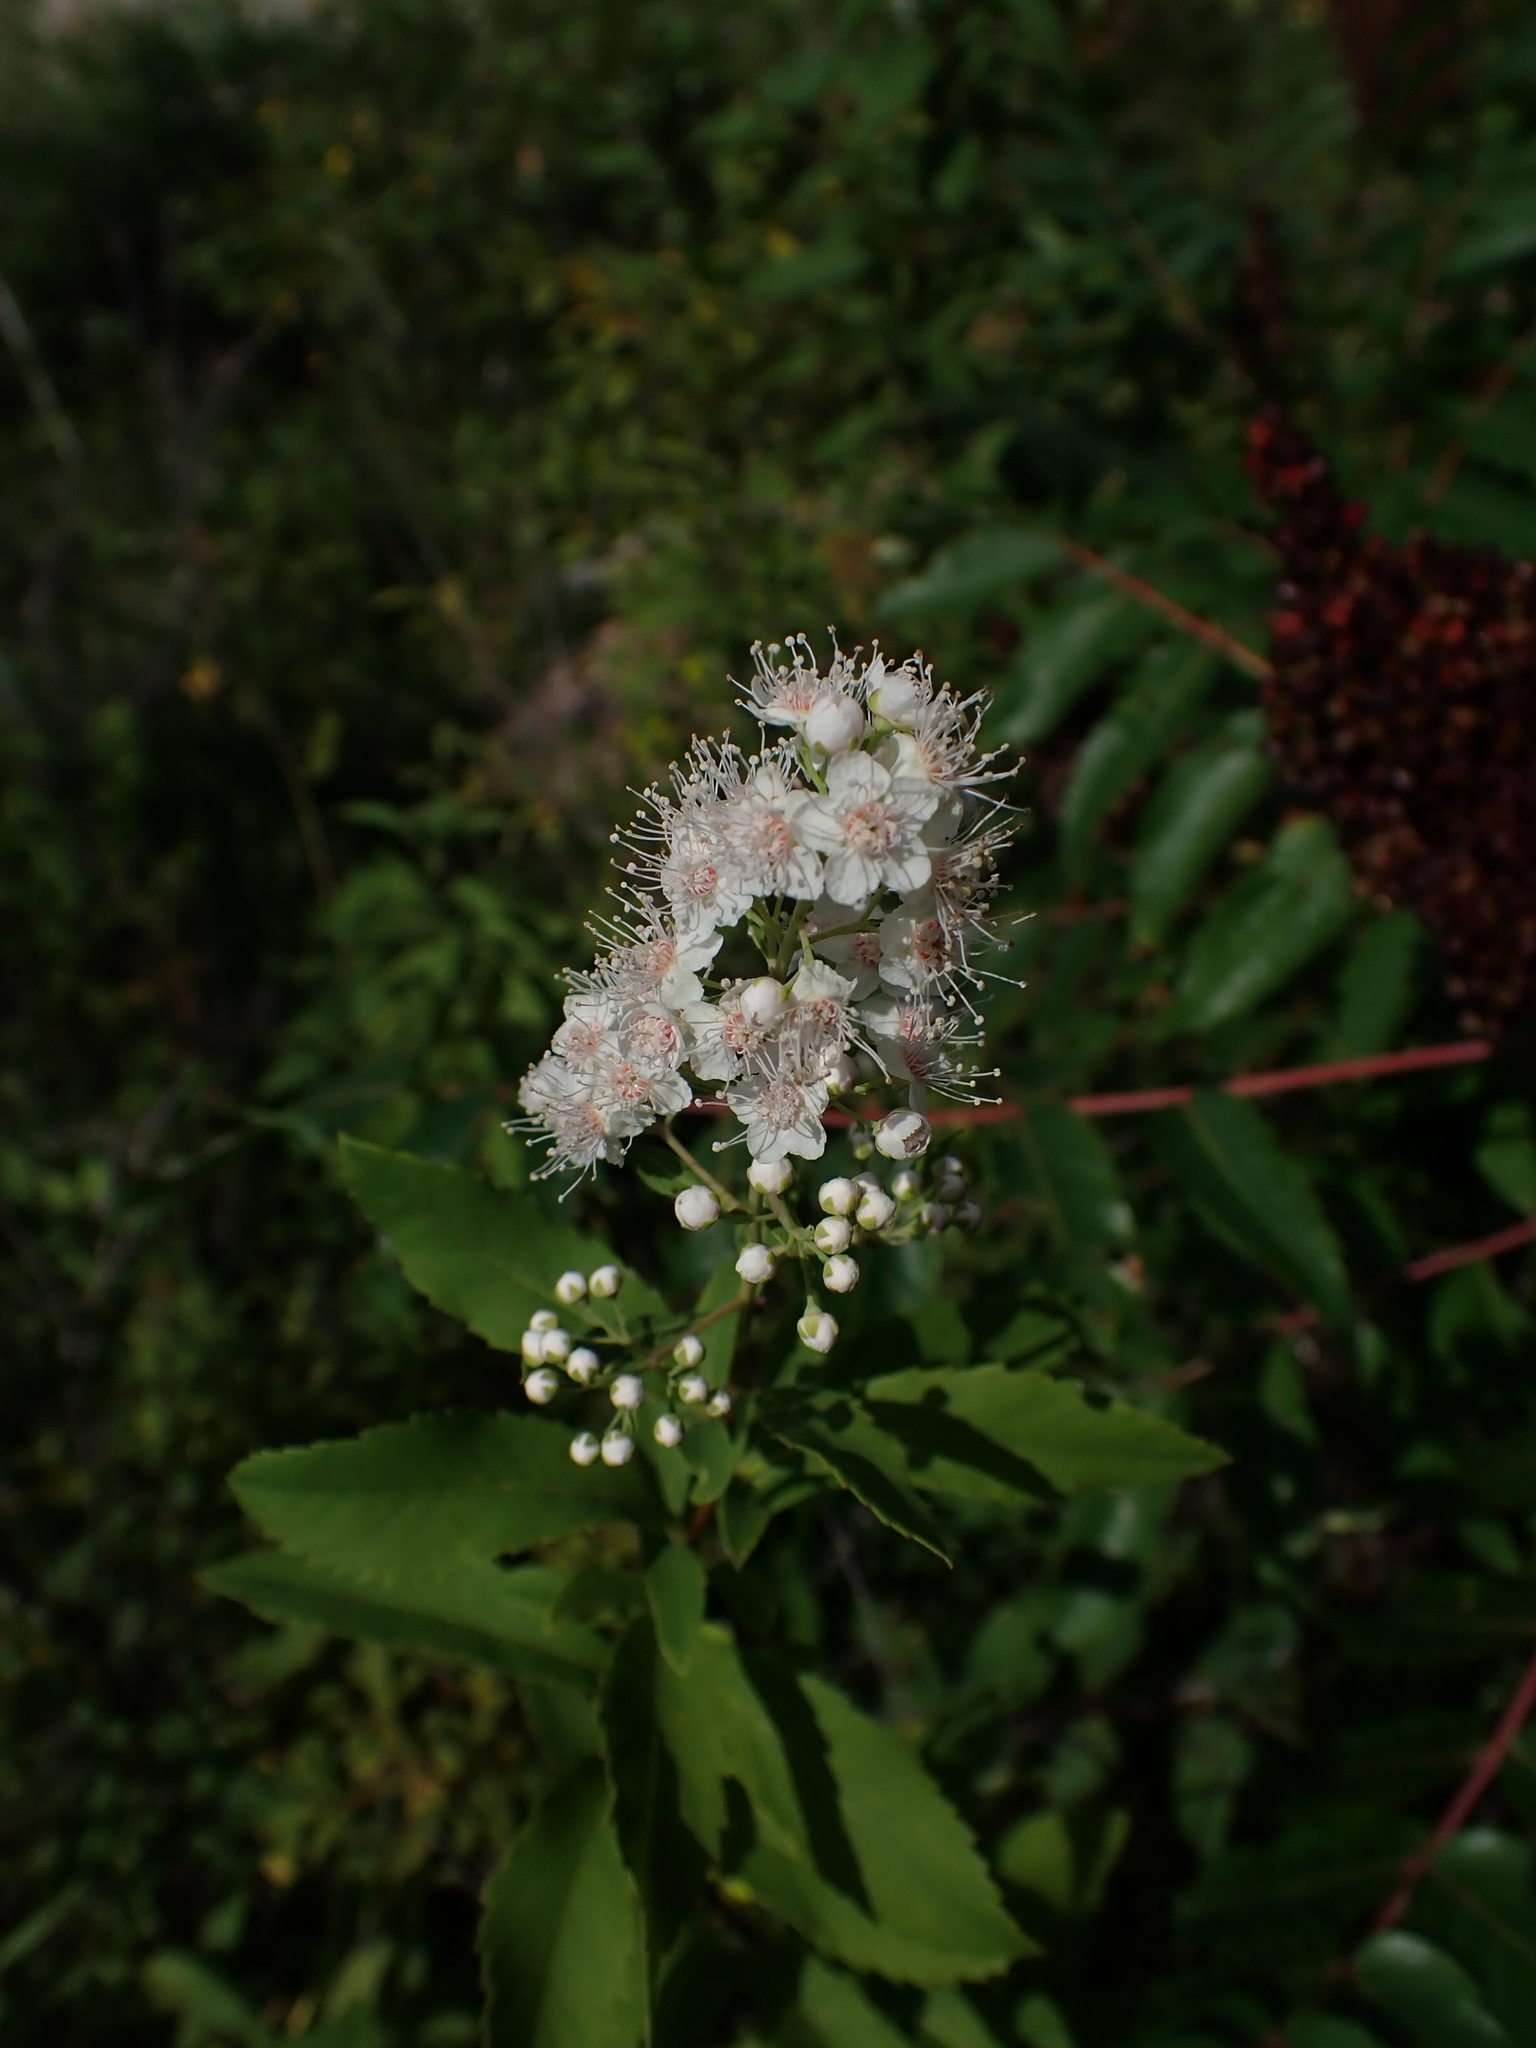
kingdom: Plantae
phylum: Tracheophyta
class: Magnoliopsida
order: Rosales
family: Rosaceae
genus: Spiraea
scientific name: Spiraea alba
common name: Pale bridewort
